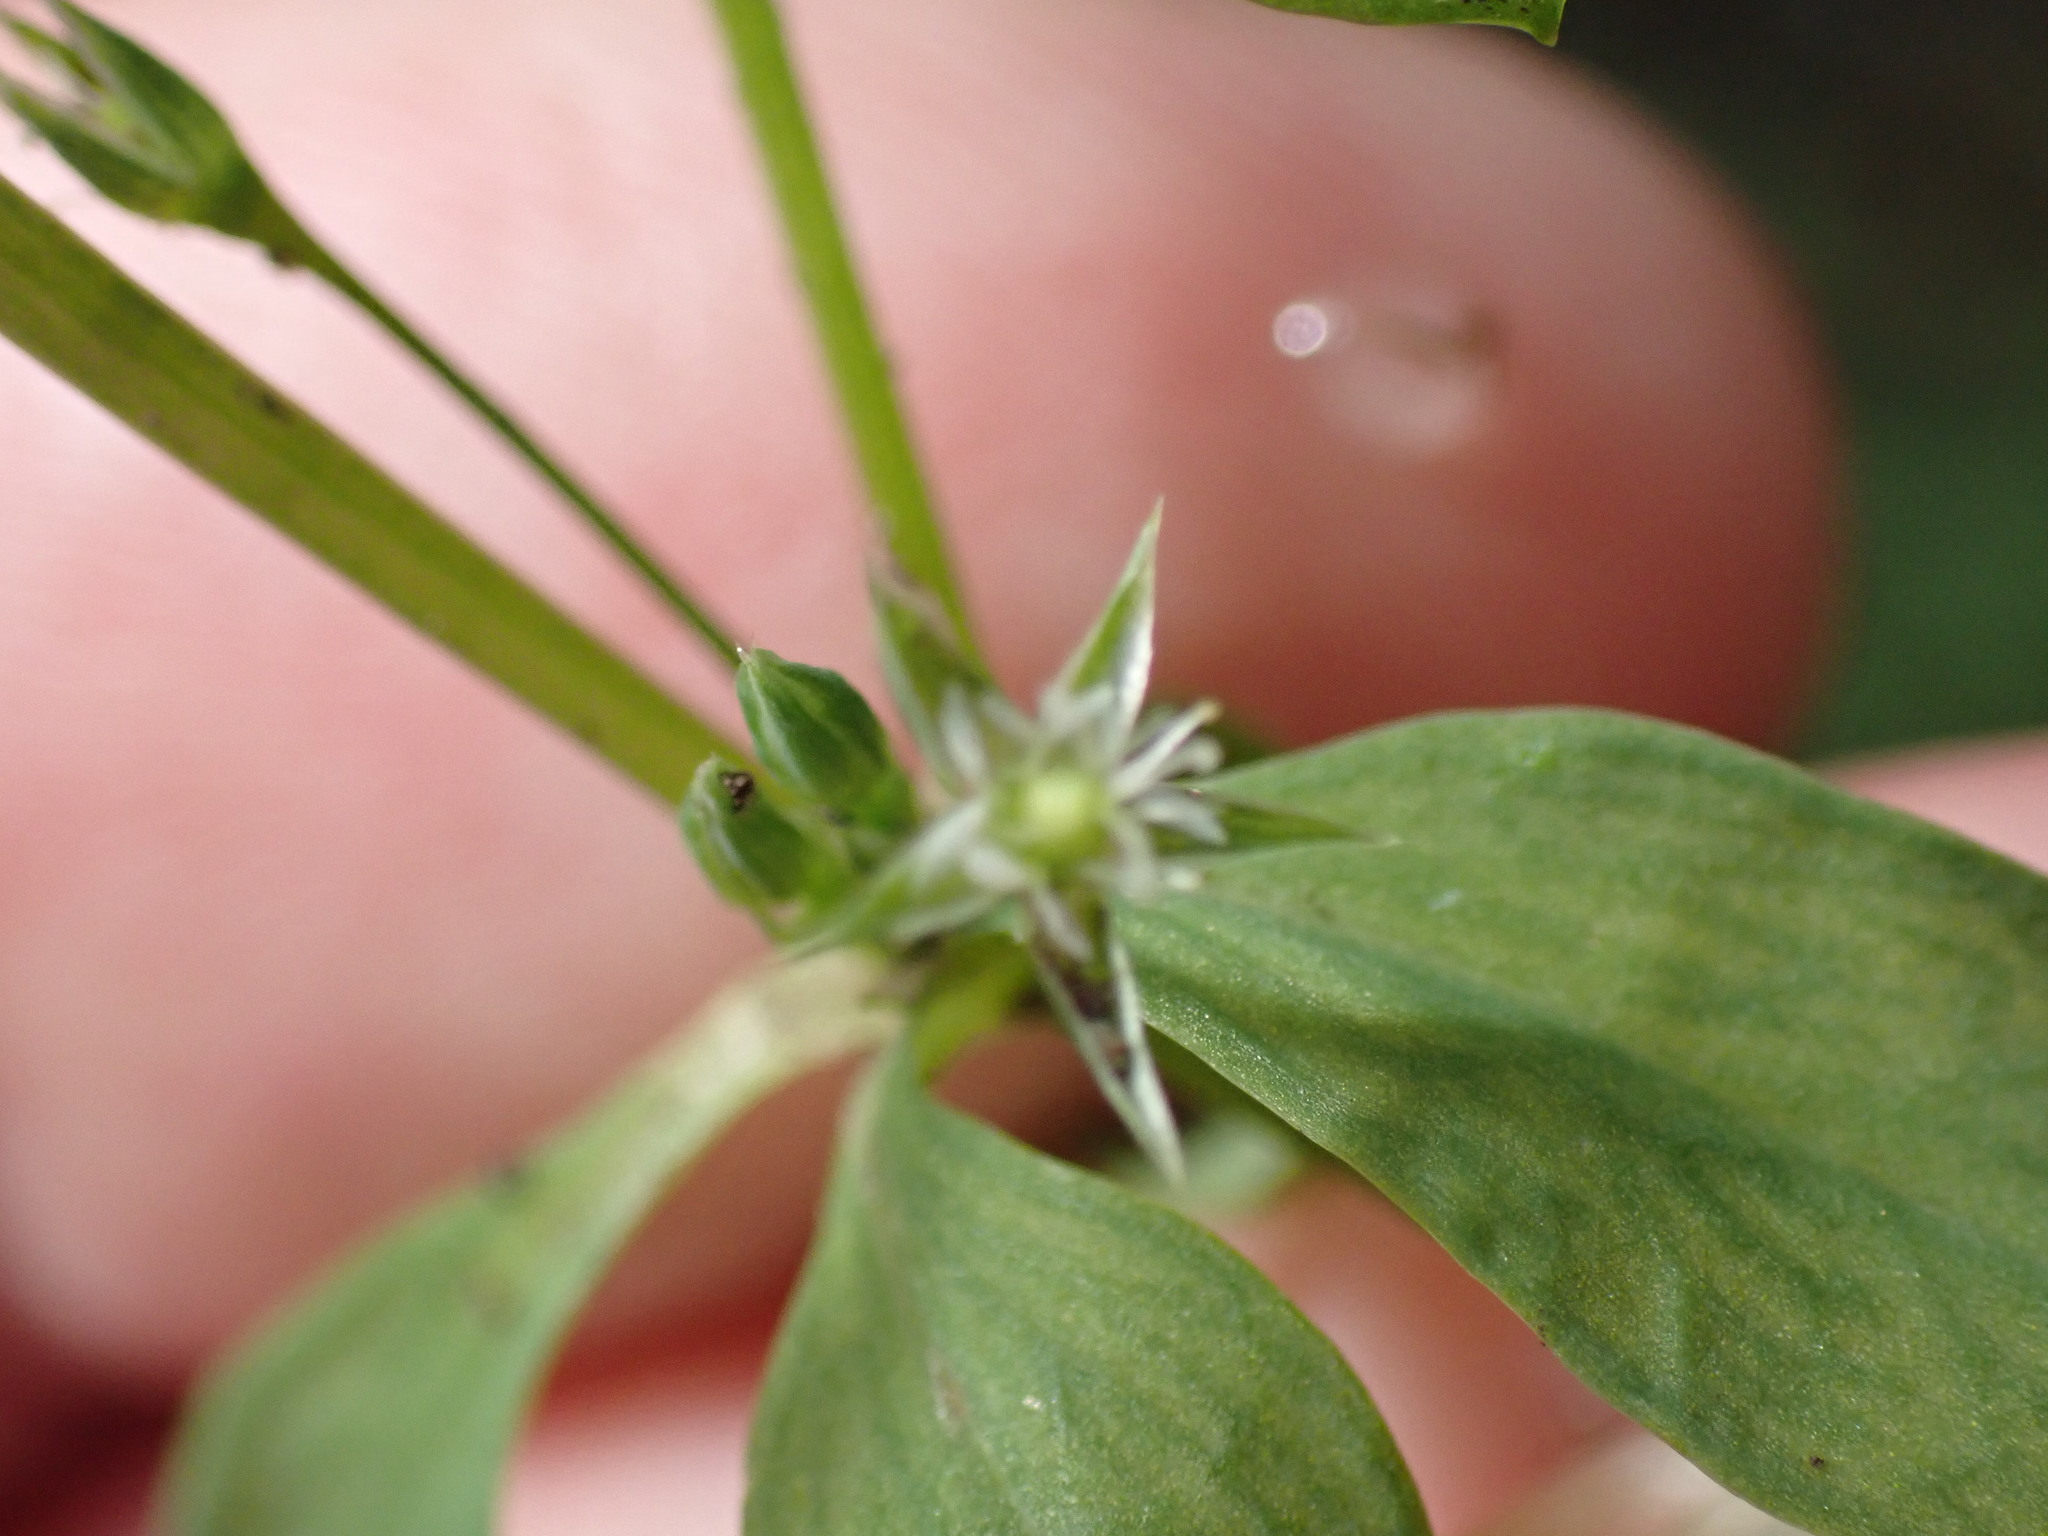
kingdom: Plantae
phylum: Tracheophyta
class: Magnoliopsida
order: Caryophyllales
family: Caryophyllaceae
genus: Stellaria
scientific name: Stellaria alsine
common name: Bog stitchwort
